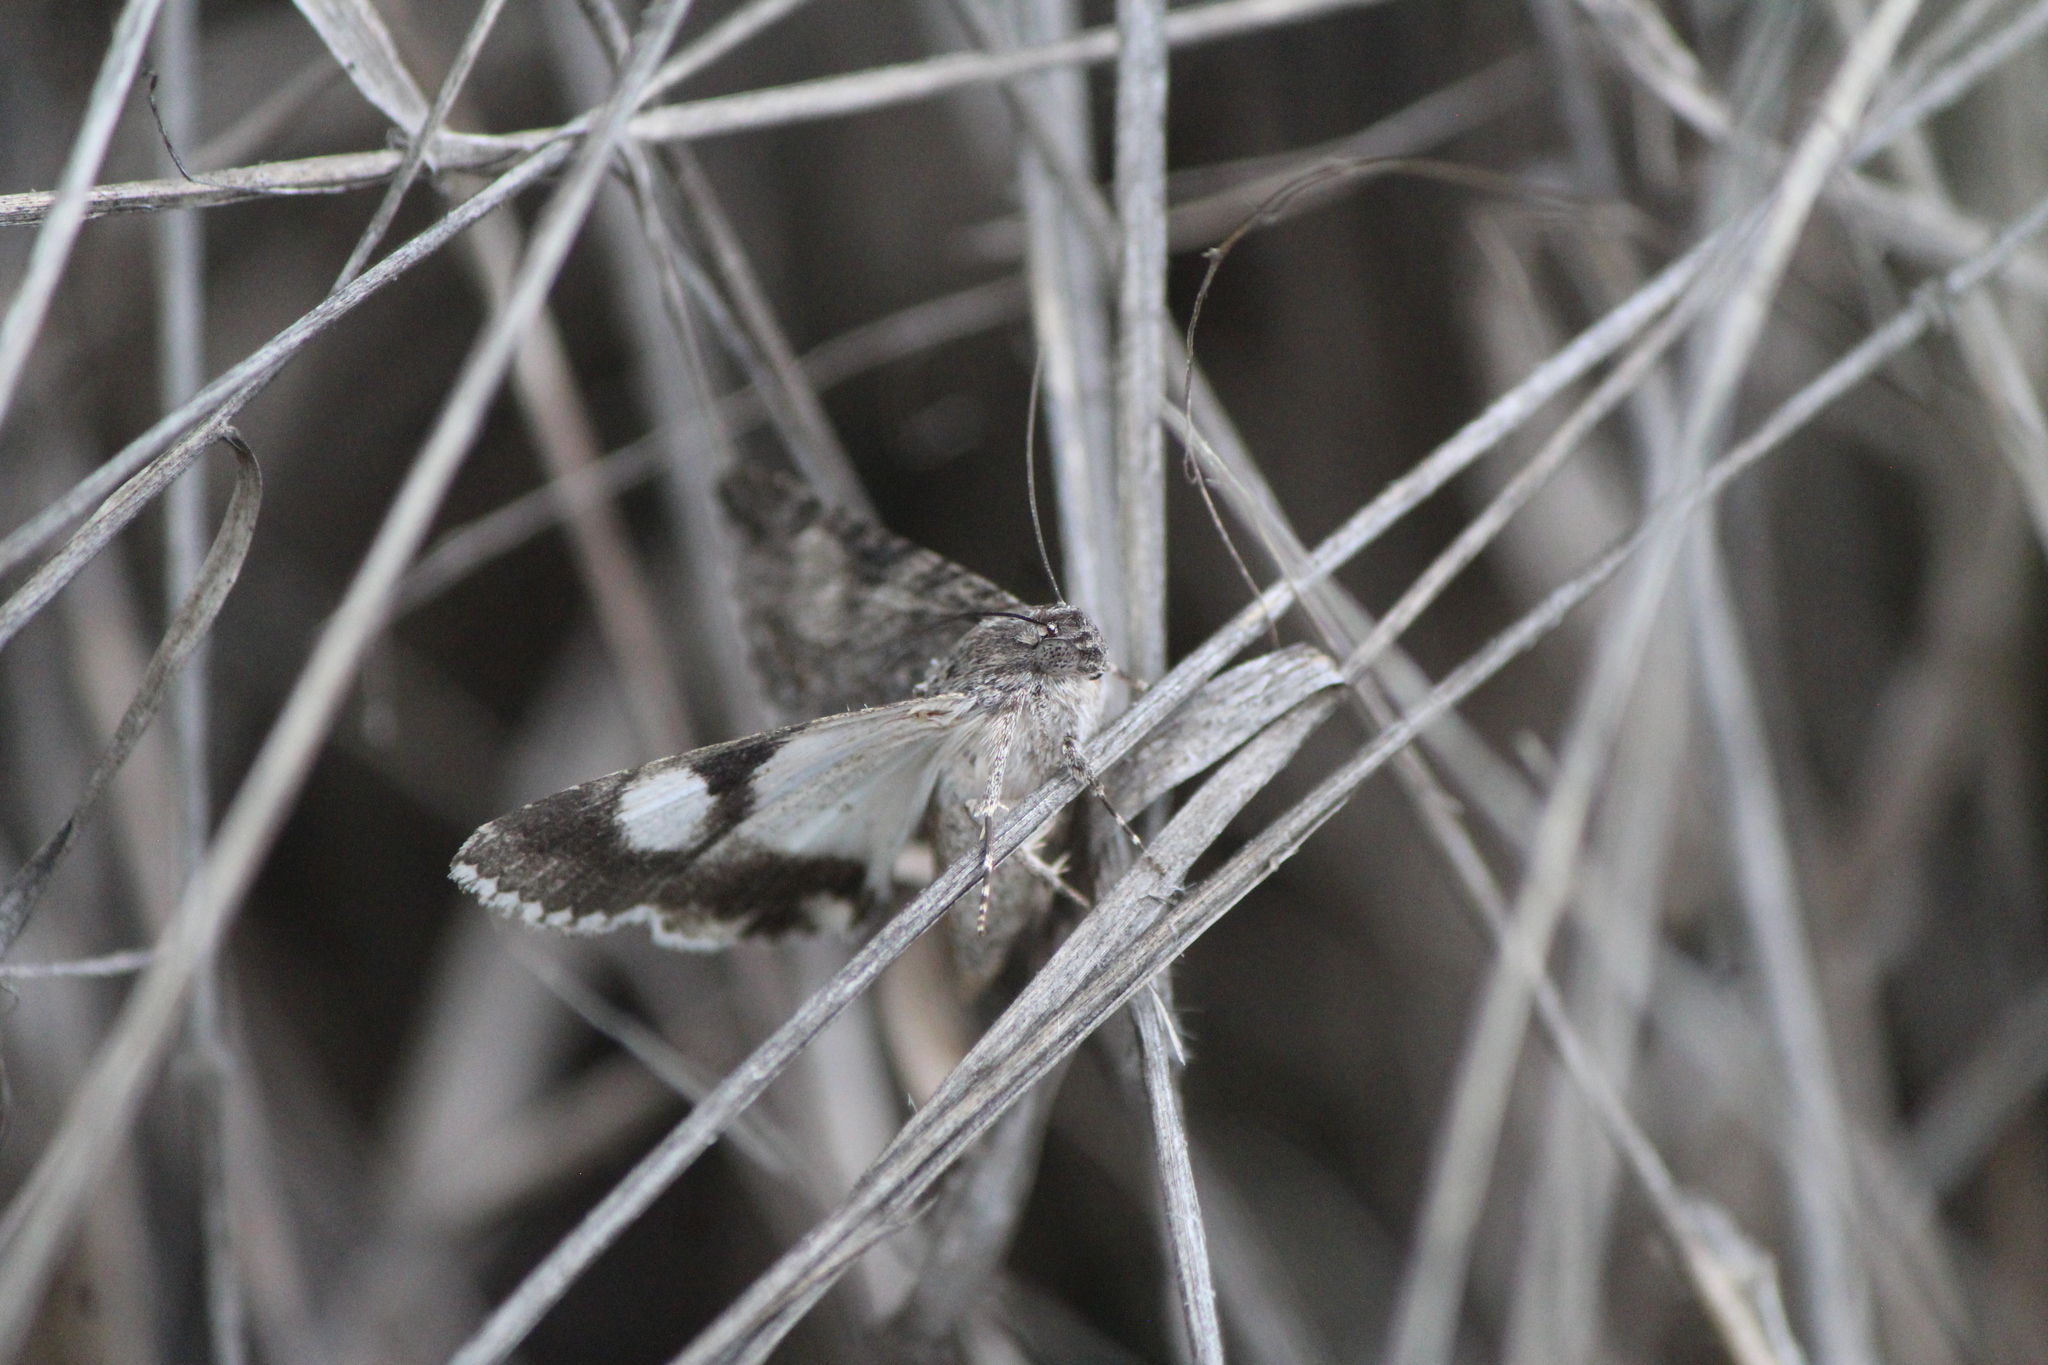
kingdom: Animalia
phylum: Arthropoda
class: Insecta
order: Lepidoptera
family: Erebidae
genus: Melipotis
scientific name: Melipotis jucunda
